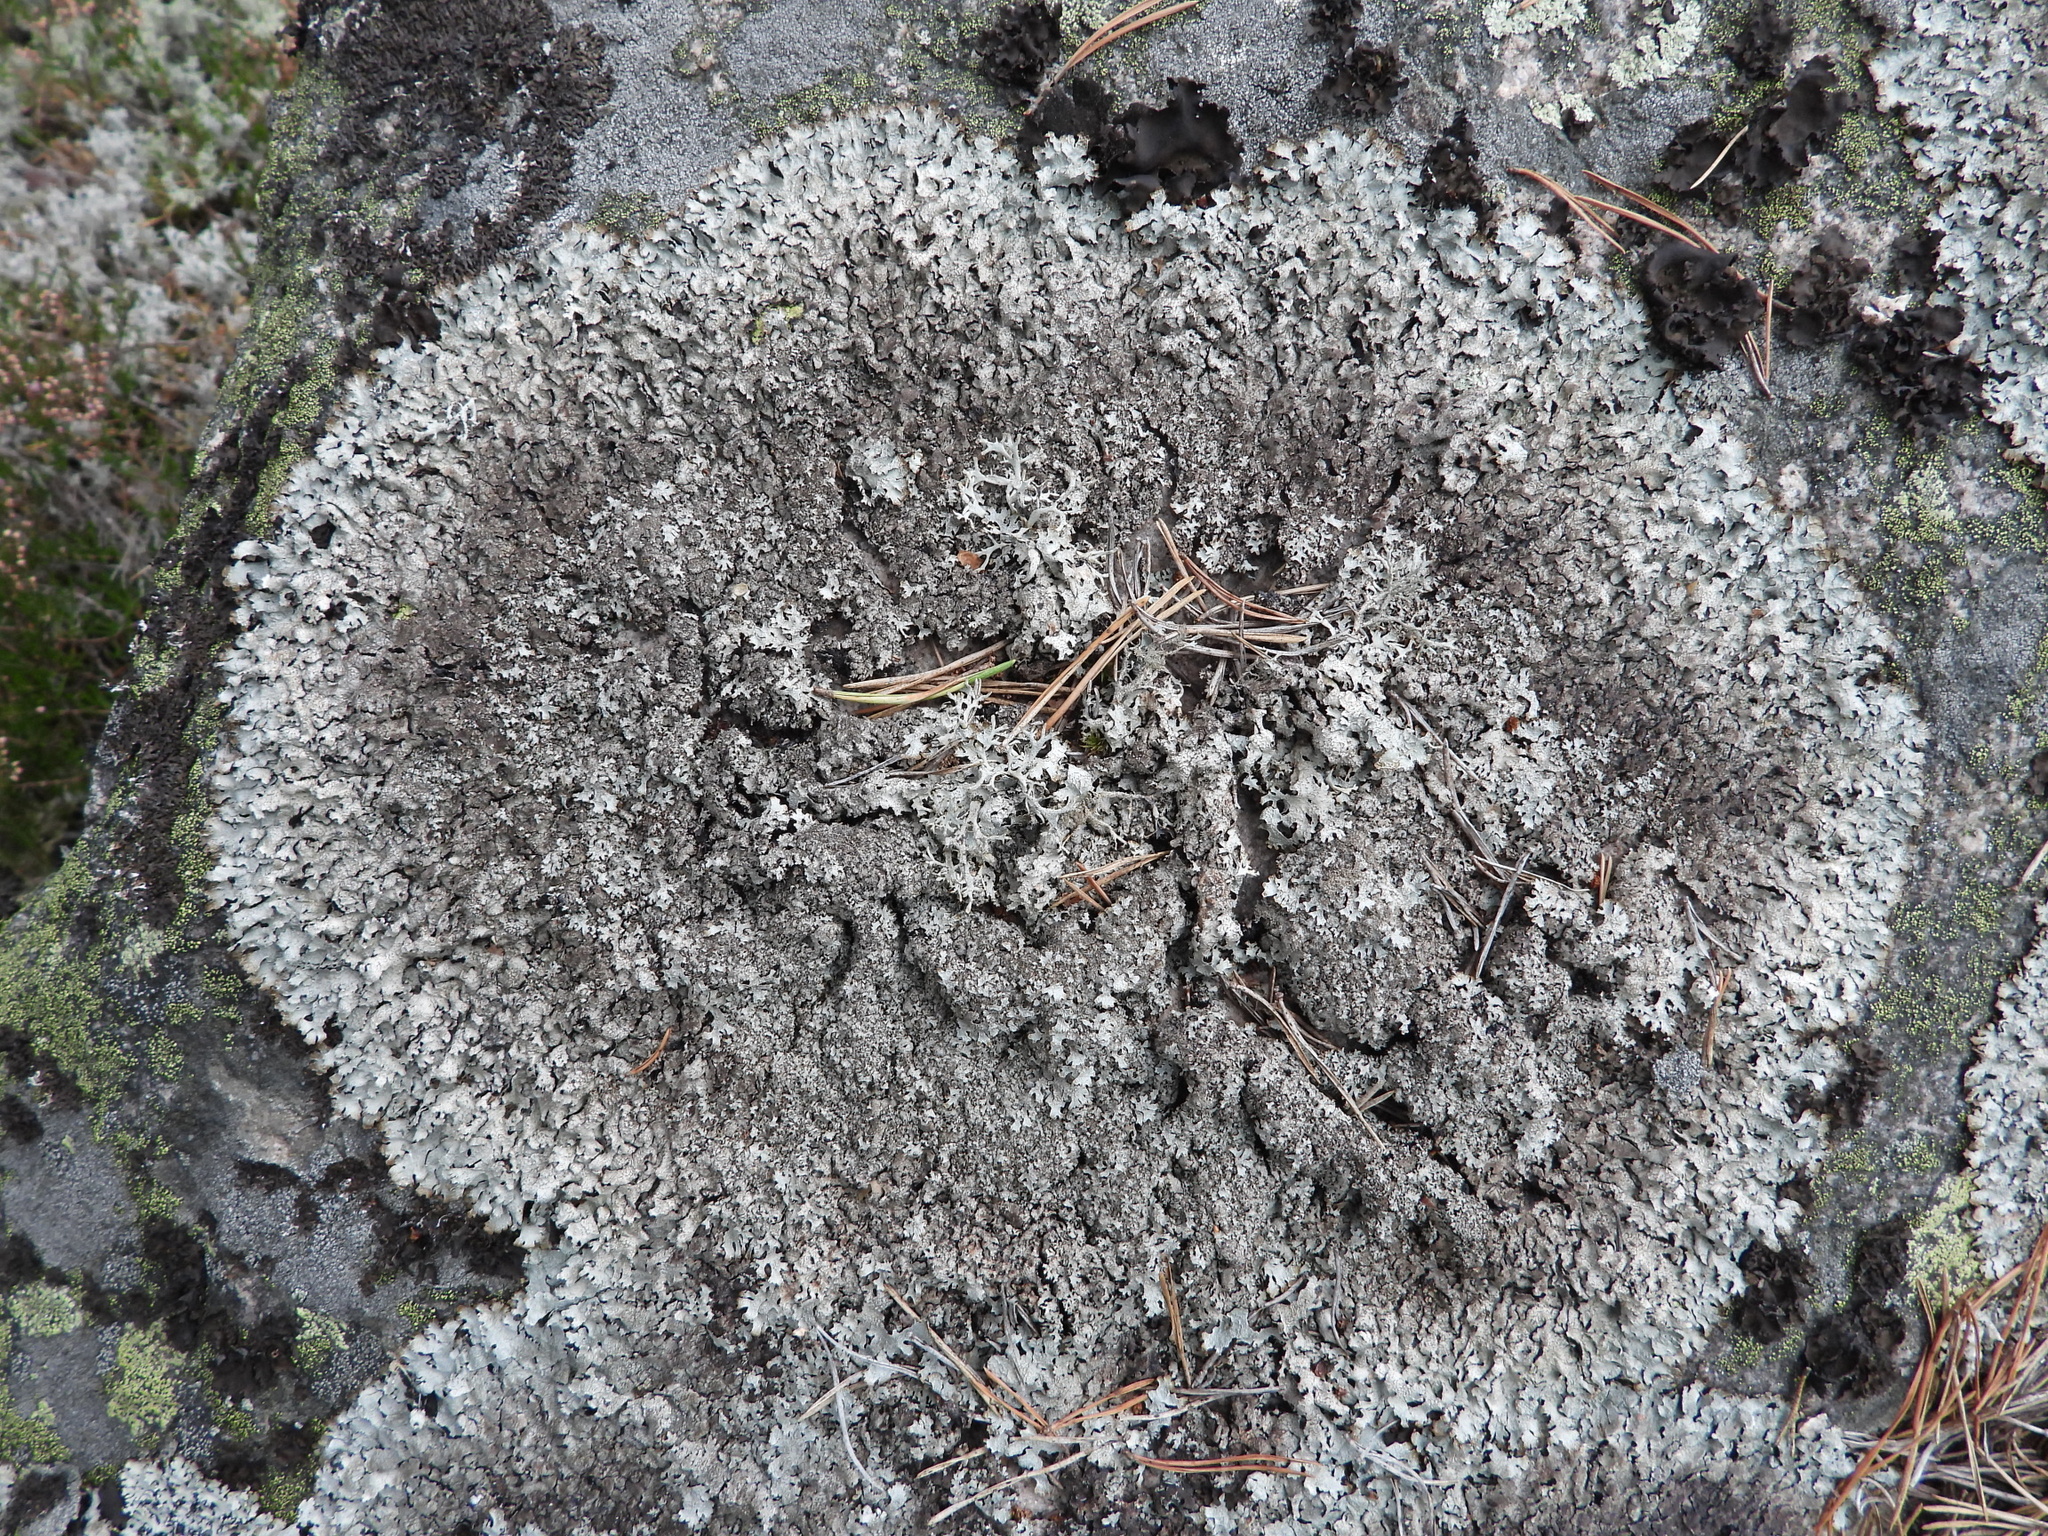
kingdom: Fungi
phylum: Ascomycota
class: Lecanoromycetes
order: Lecanorales
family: Parmeliaceae
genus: Parmelia
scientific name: Parmelia saxatilis
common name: Salted shield lichen
